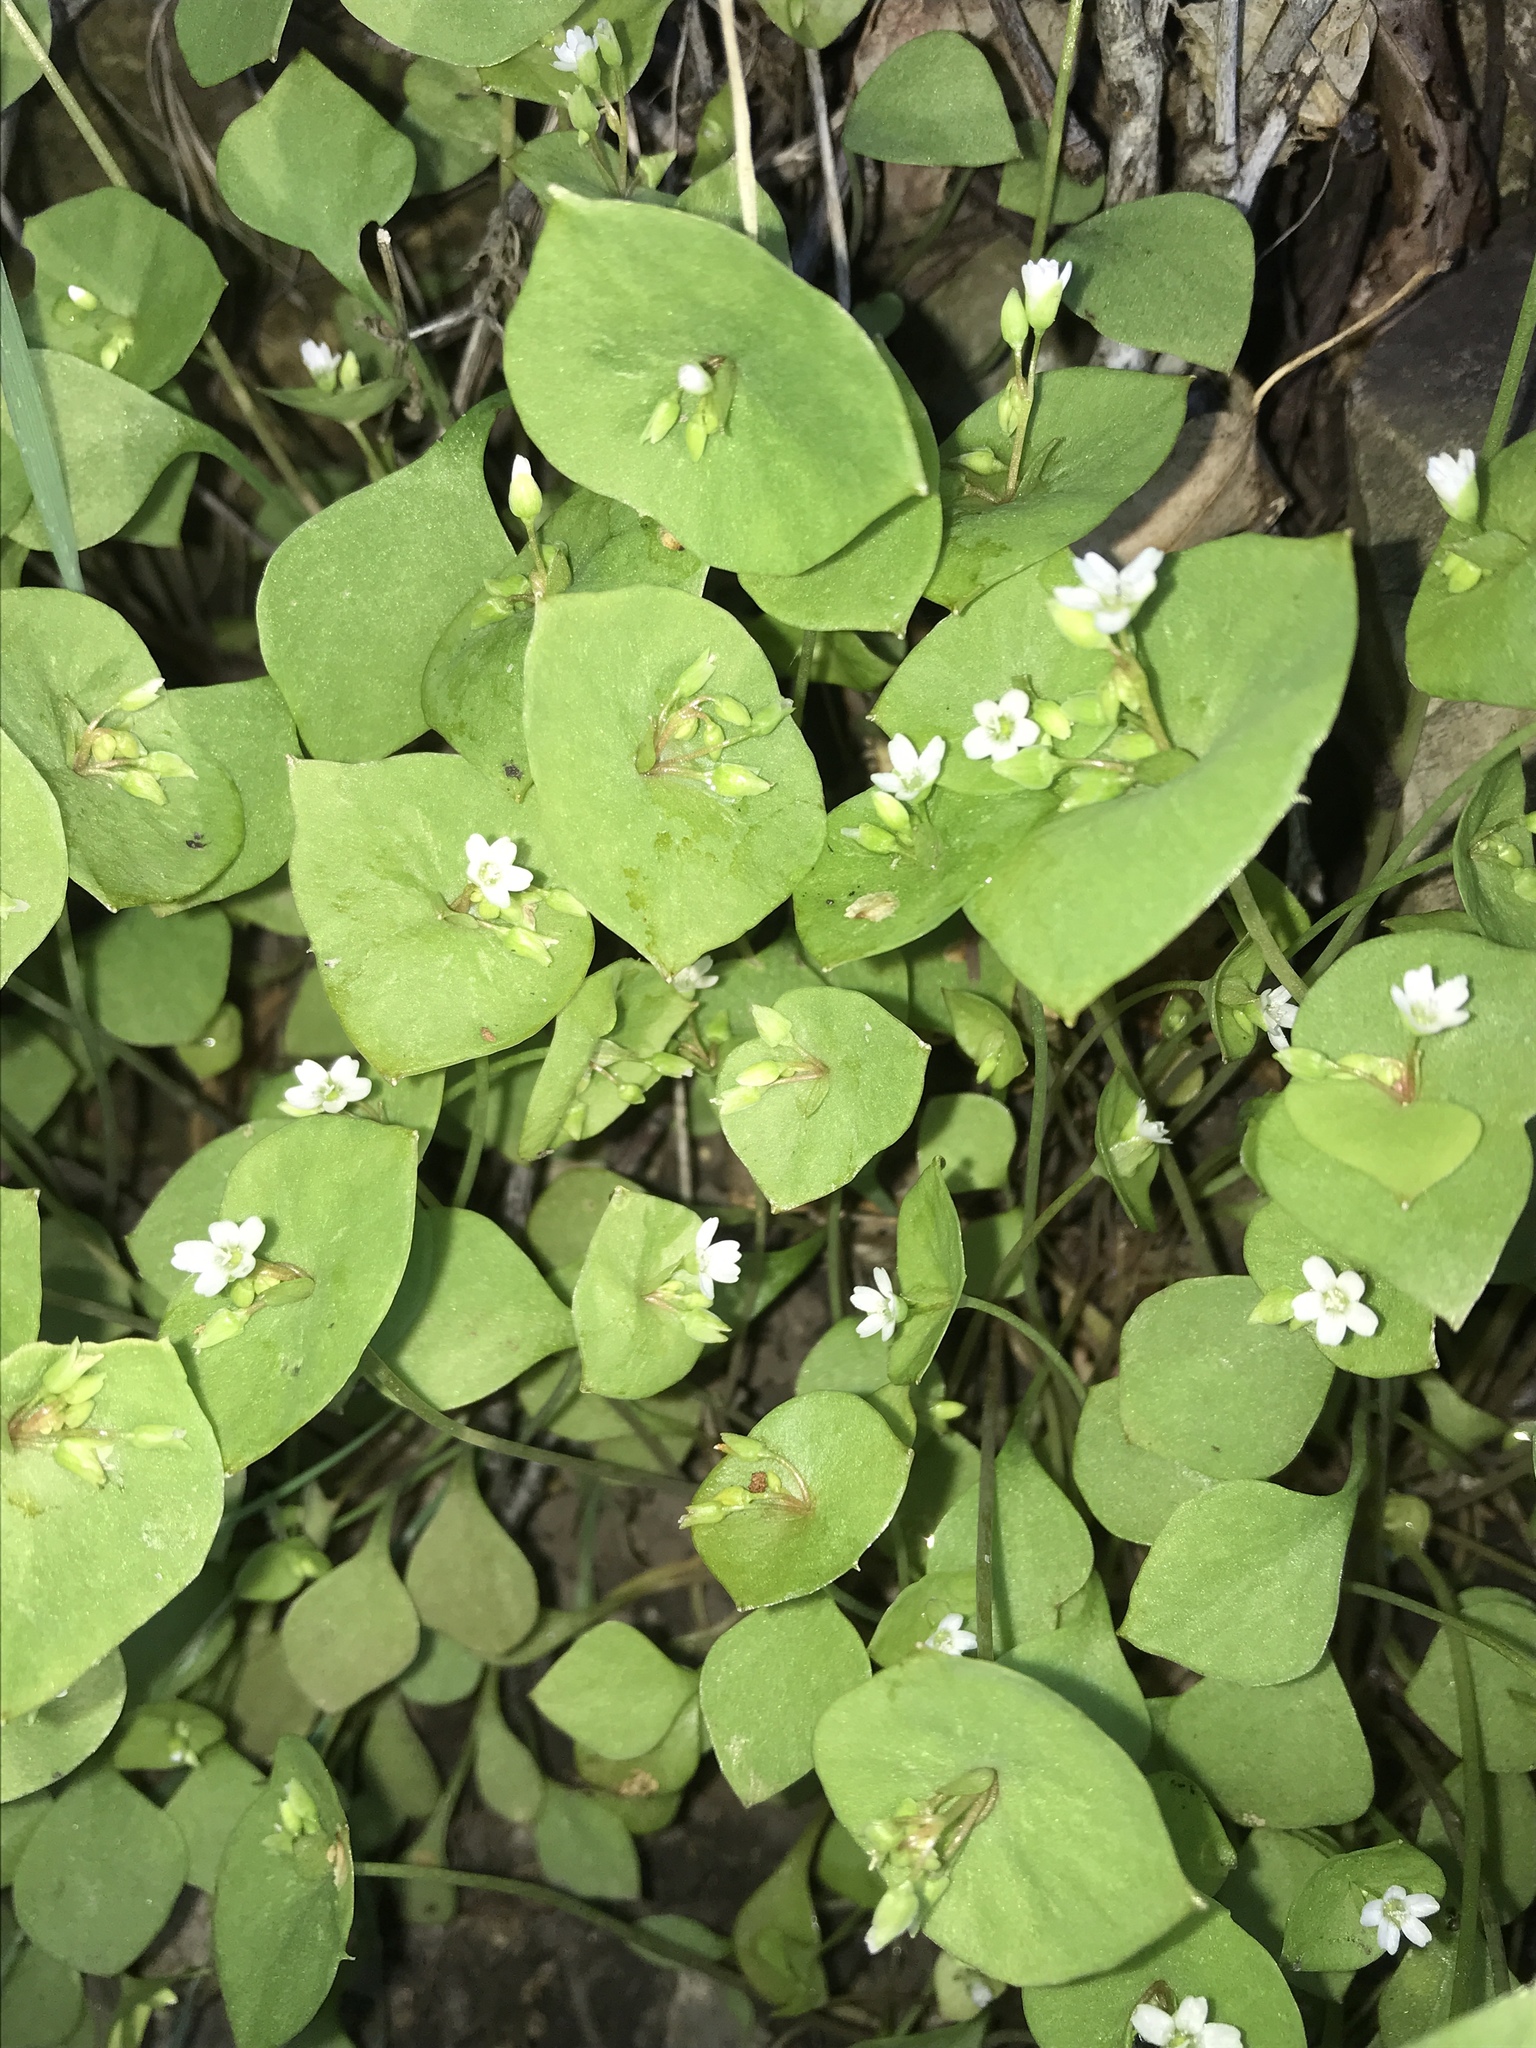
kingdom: Plantae
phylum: Tracheophyta
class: Magnoliopsida
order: Caryophyllales
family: Montiaceae
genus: Claytonia
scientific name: Claytonia perfoliata
